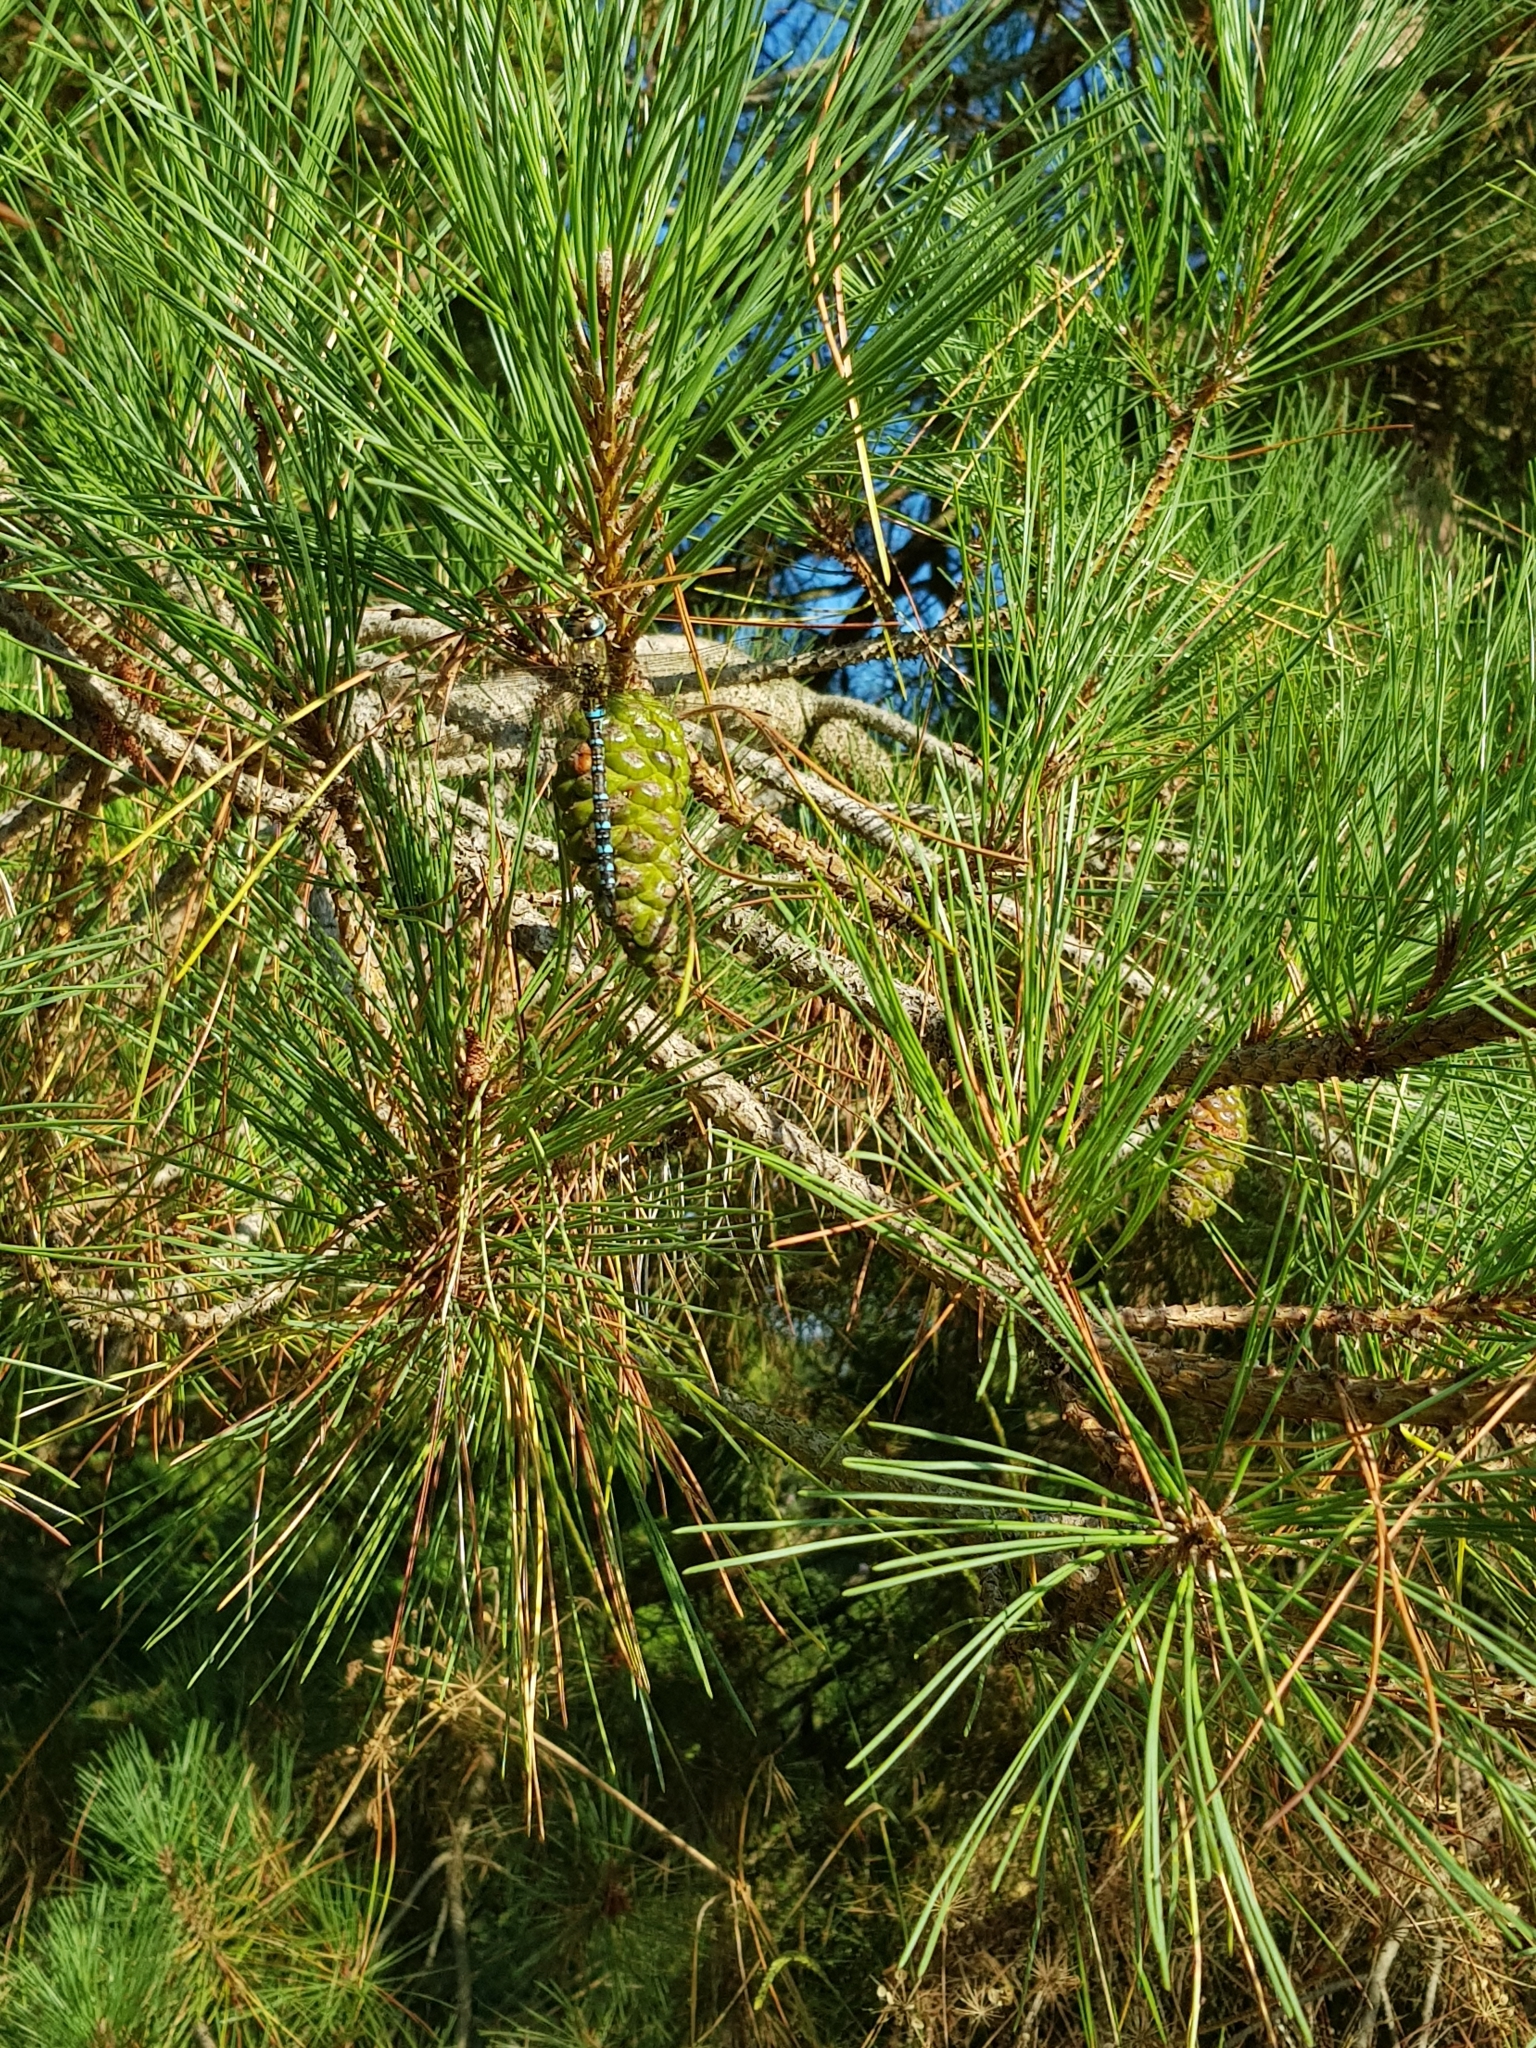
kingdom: Animalia
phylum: Arthropoda
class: Insecta
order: Odonata
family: Aeshnidae
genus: Aeshna
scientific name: Aeshna mixta
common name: Migrant hawker
